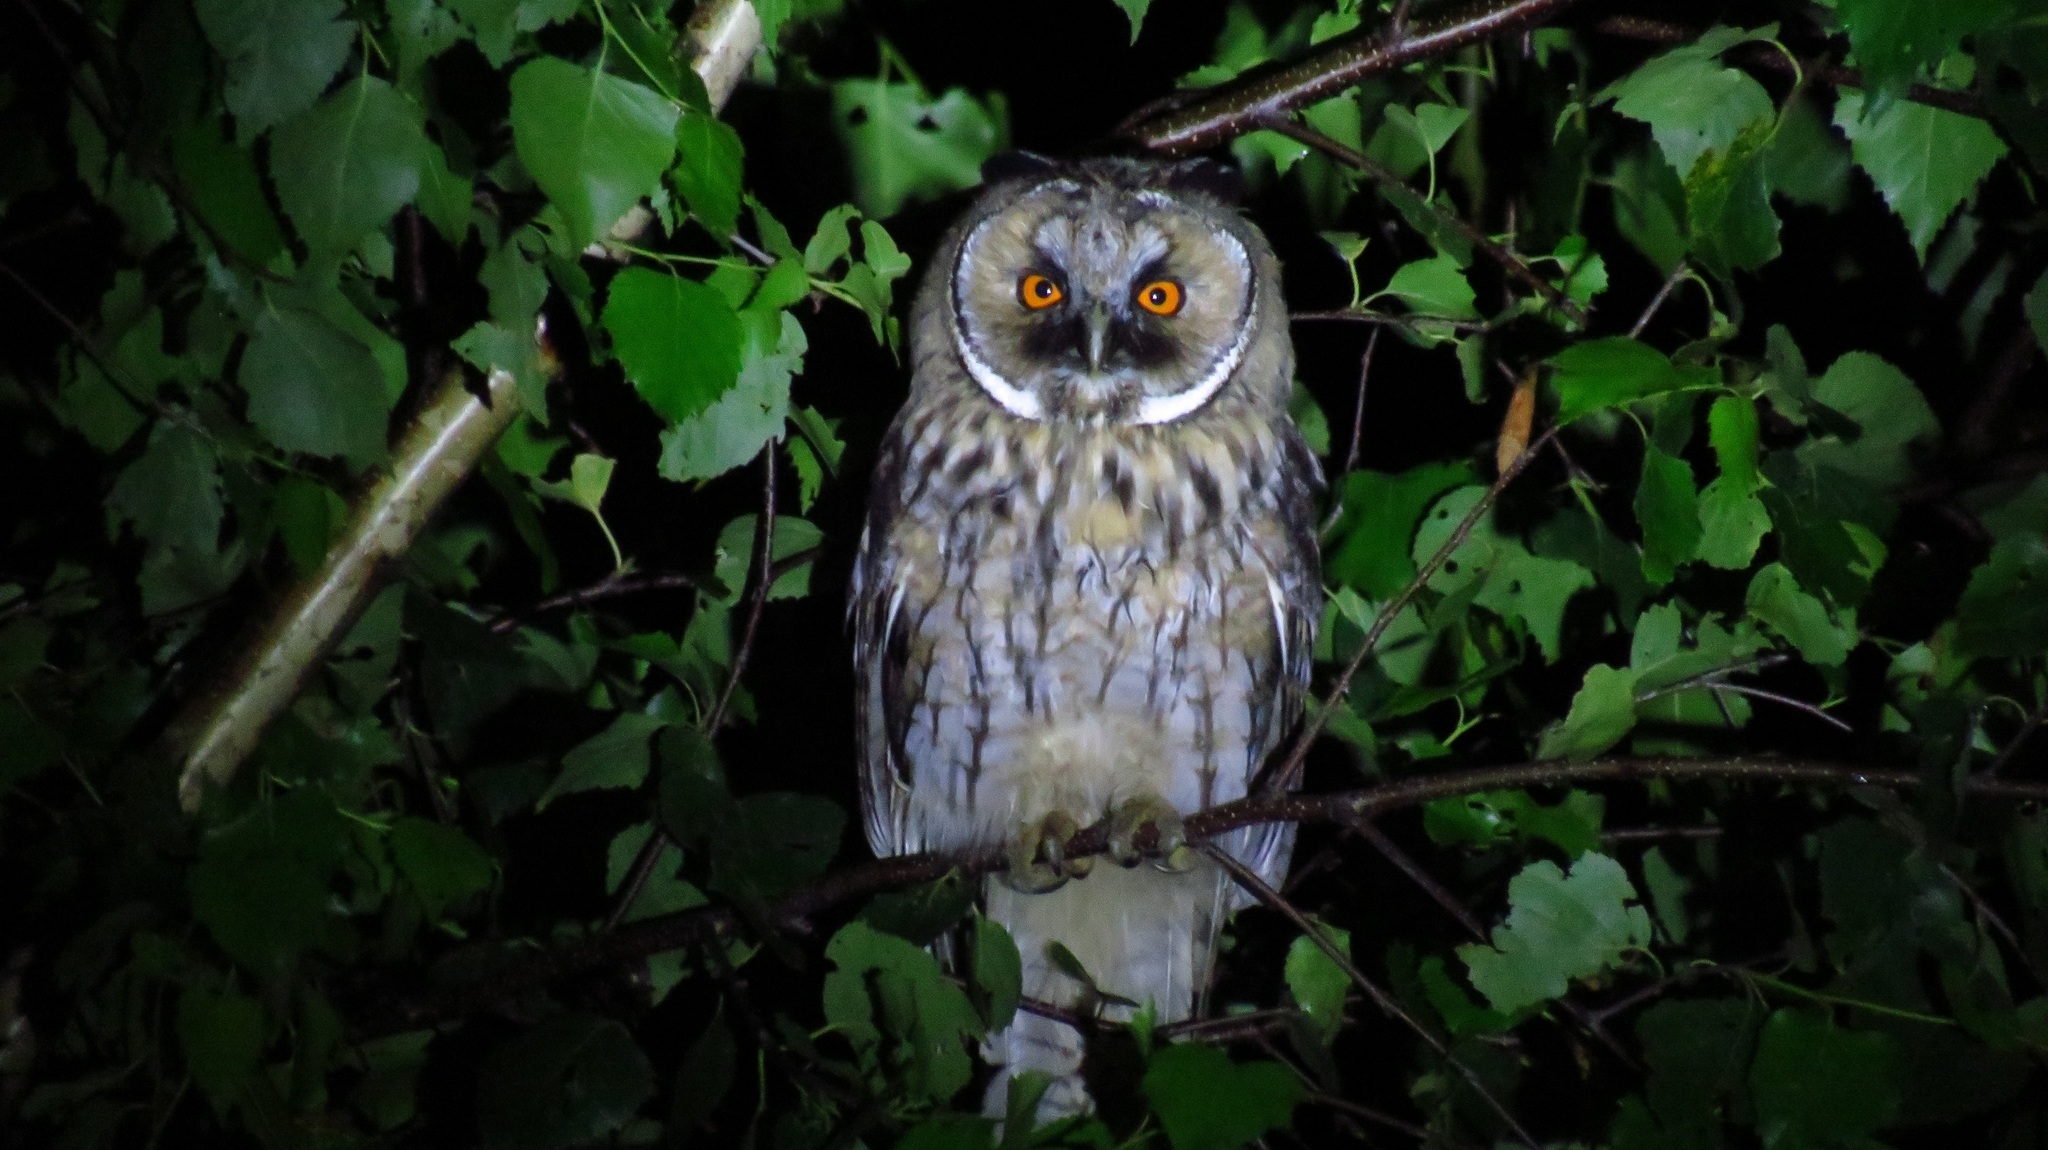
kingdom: Animalia
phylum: Chordata
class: Aves
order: Strigiformes
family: Strigidae
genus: Asio
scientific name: Asio otus
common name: Long-eared owl
